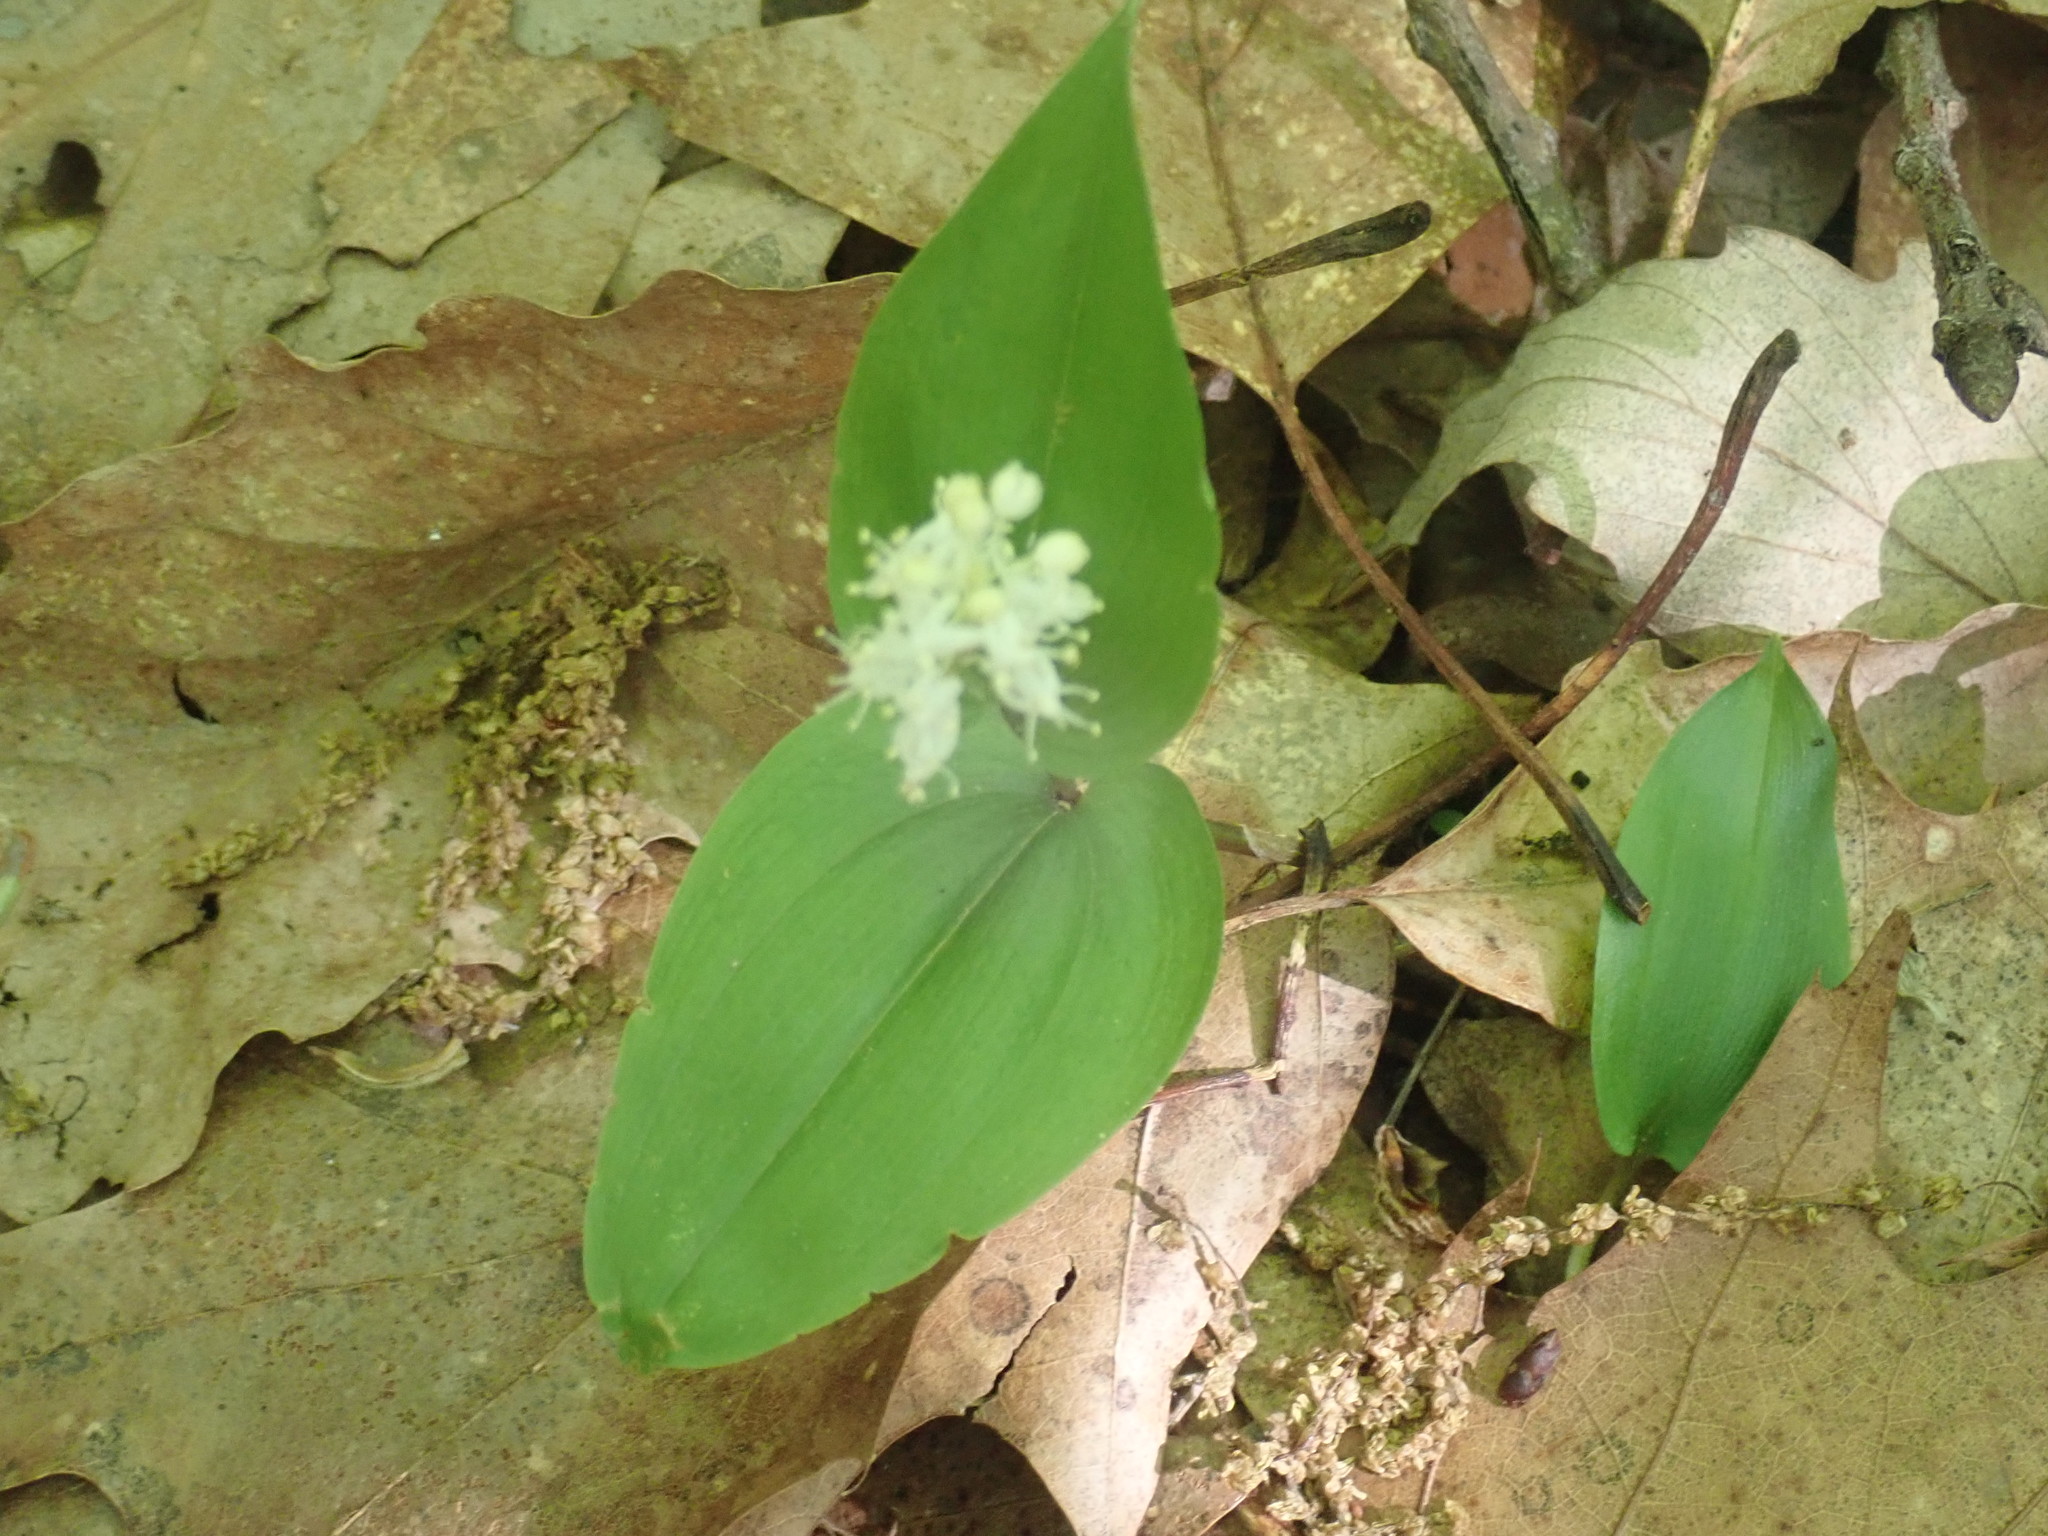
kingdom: Plantae
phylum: Tracheophyta
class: Liliopsida
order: Asparagales
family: Asparagaceae
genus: Maianthemum
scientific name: Maianthemum canadense
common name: False lily-of-the-valley
